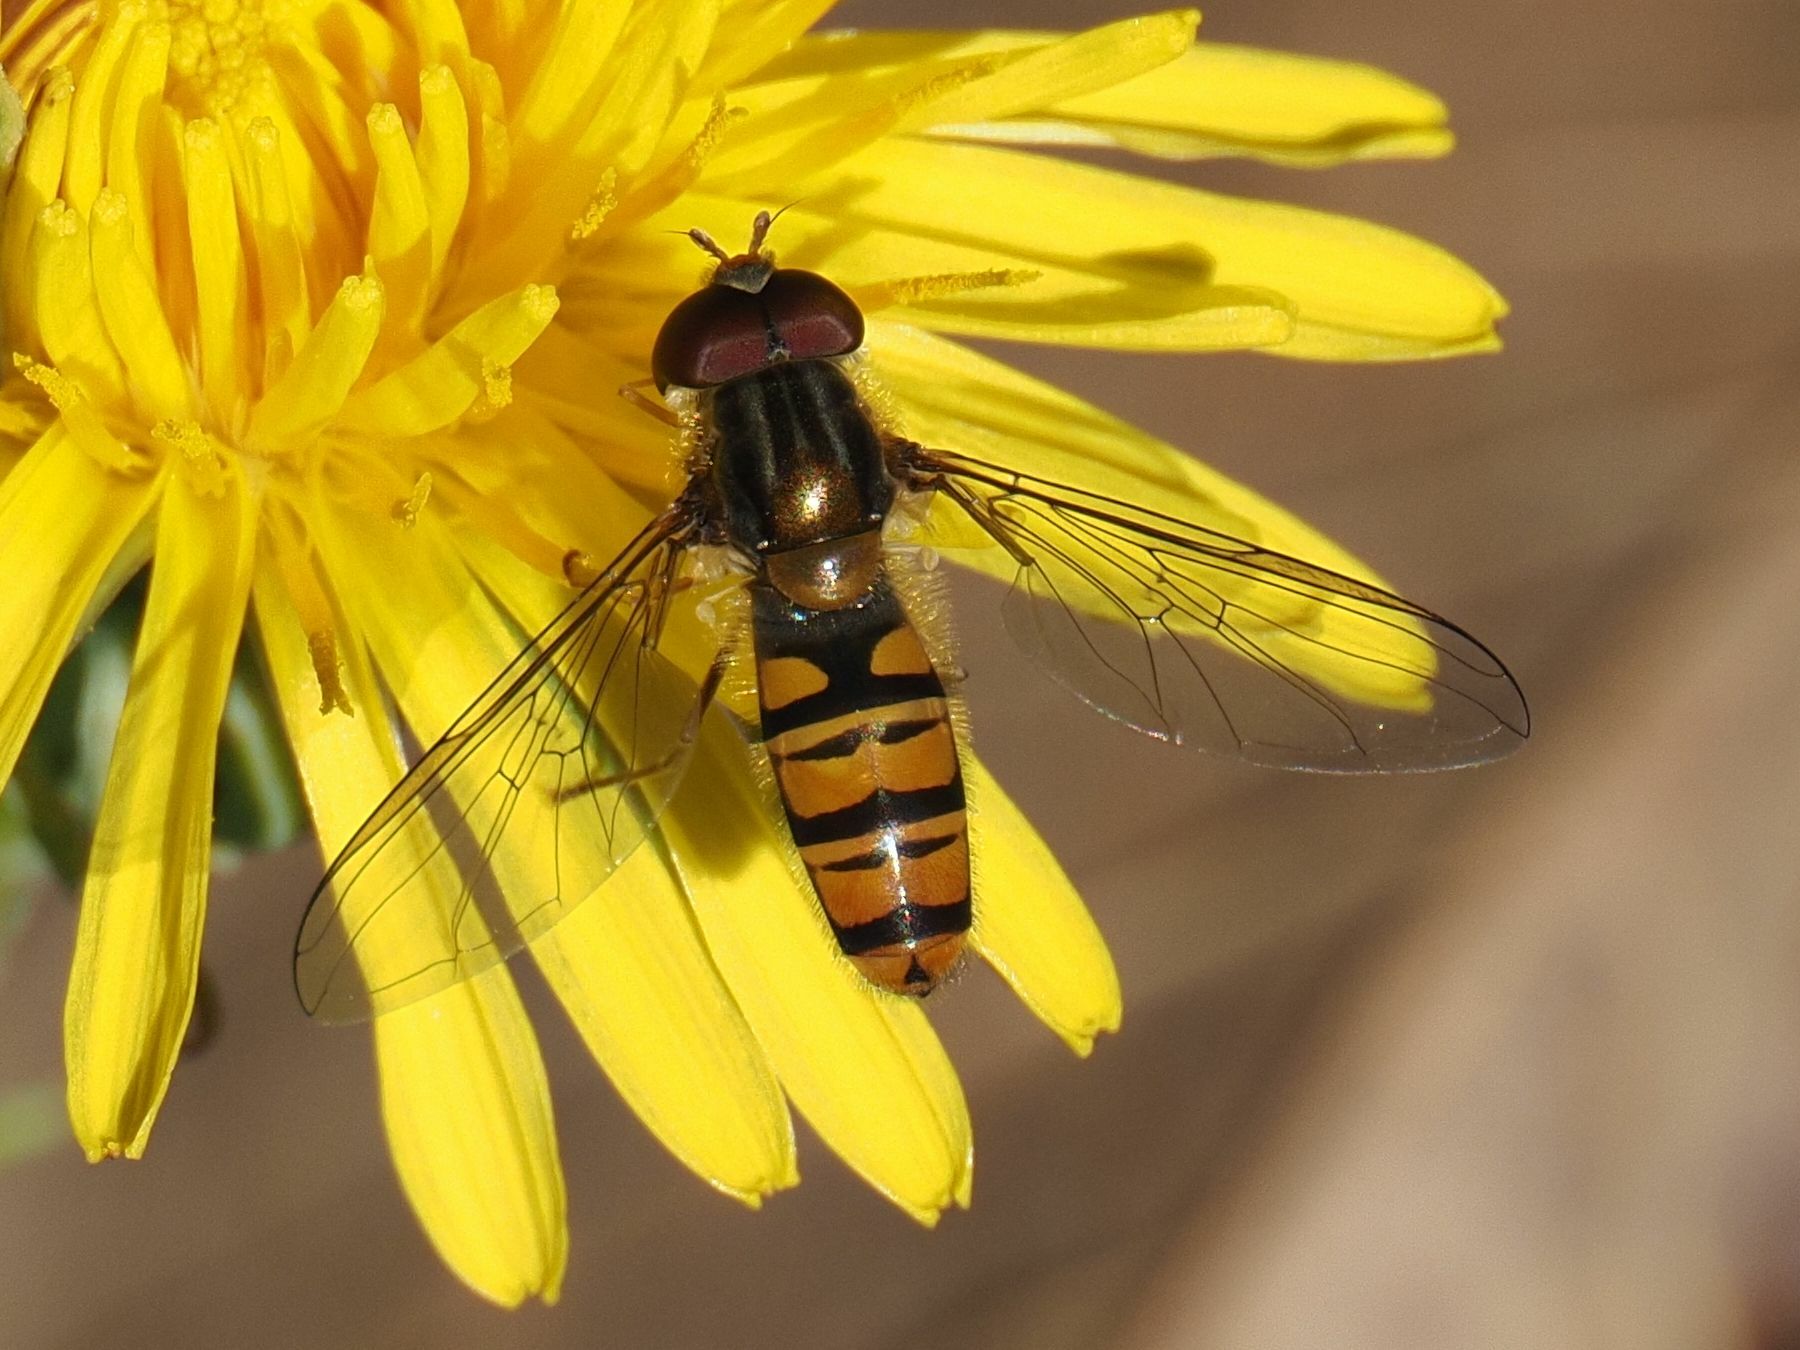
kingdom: Animalia
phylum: Arthropoda
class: Insecta
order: Diptera
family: Syrphidae
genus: Episyrphus
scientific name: Episyrphus balteatus
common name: Marmalade hoverfly
